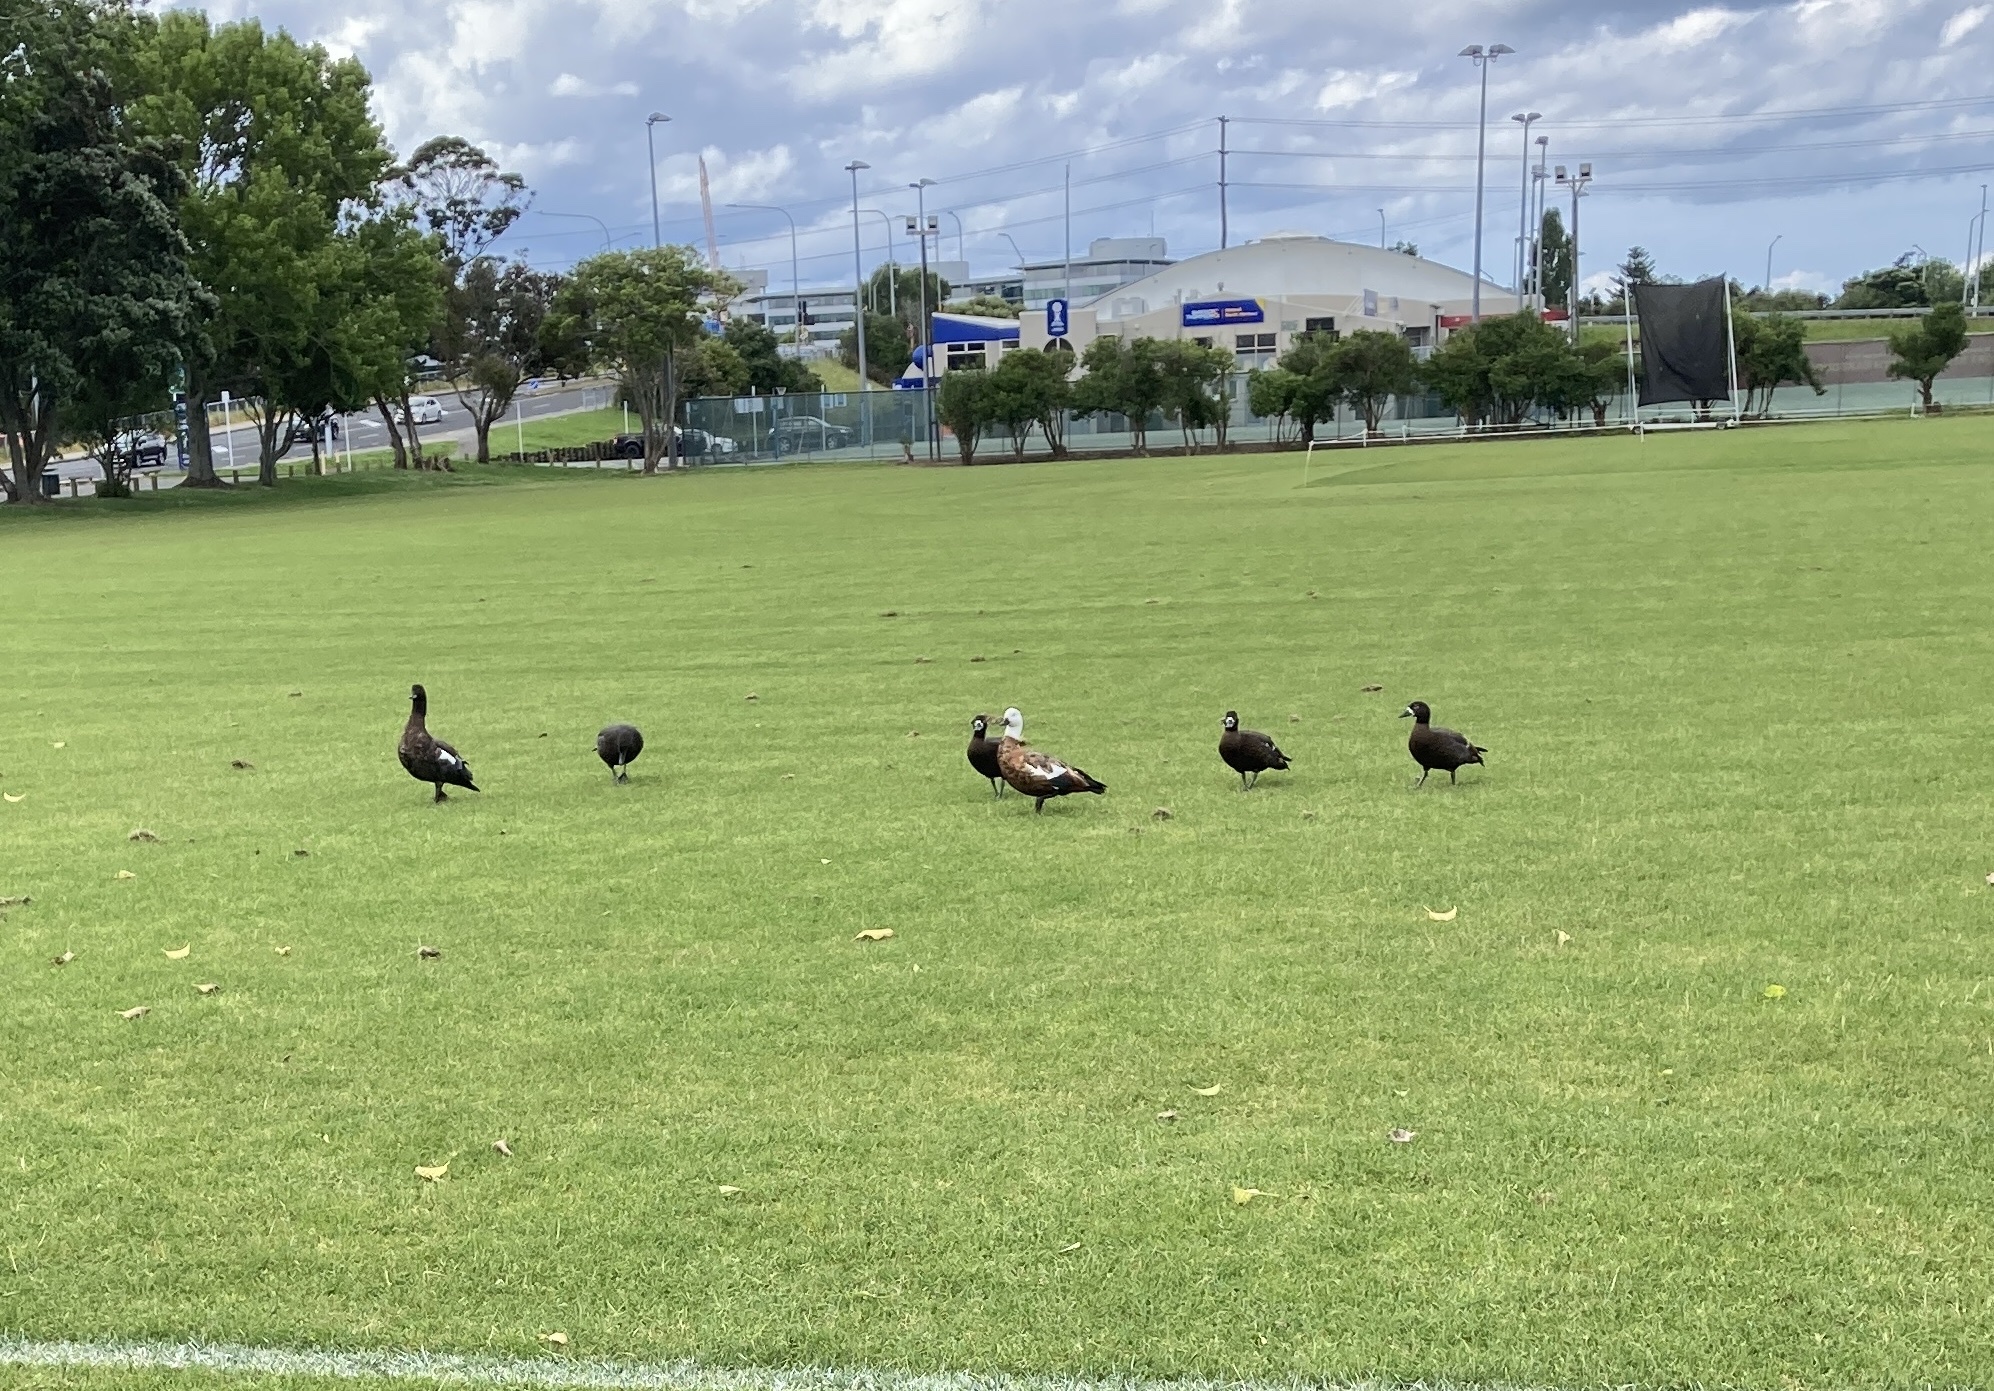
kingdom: Animalia
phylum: Chordata
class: Aves
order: Anseriformes
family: Anatidae
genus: Tadorna
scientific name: Tadorna variegata
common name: Paradise shelduck
